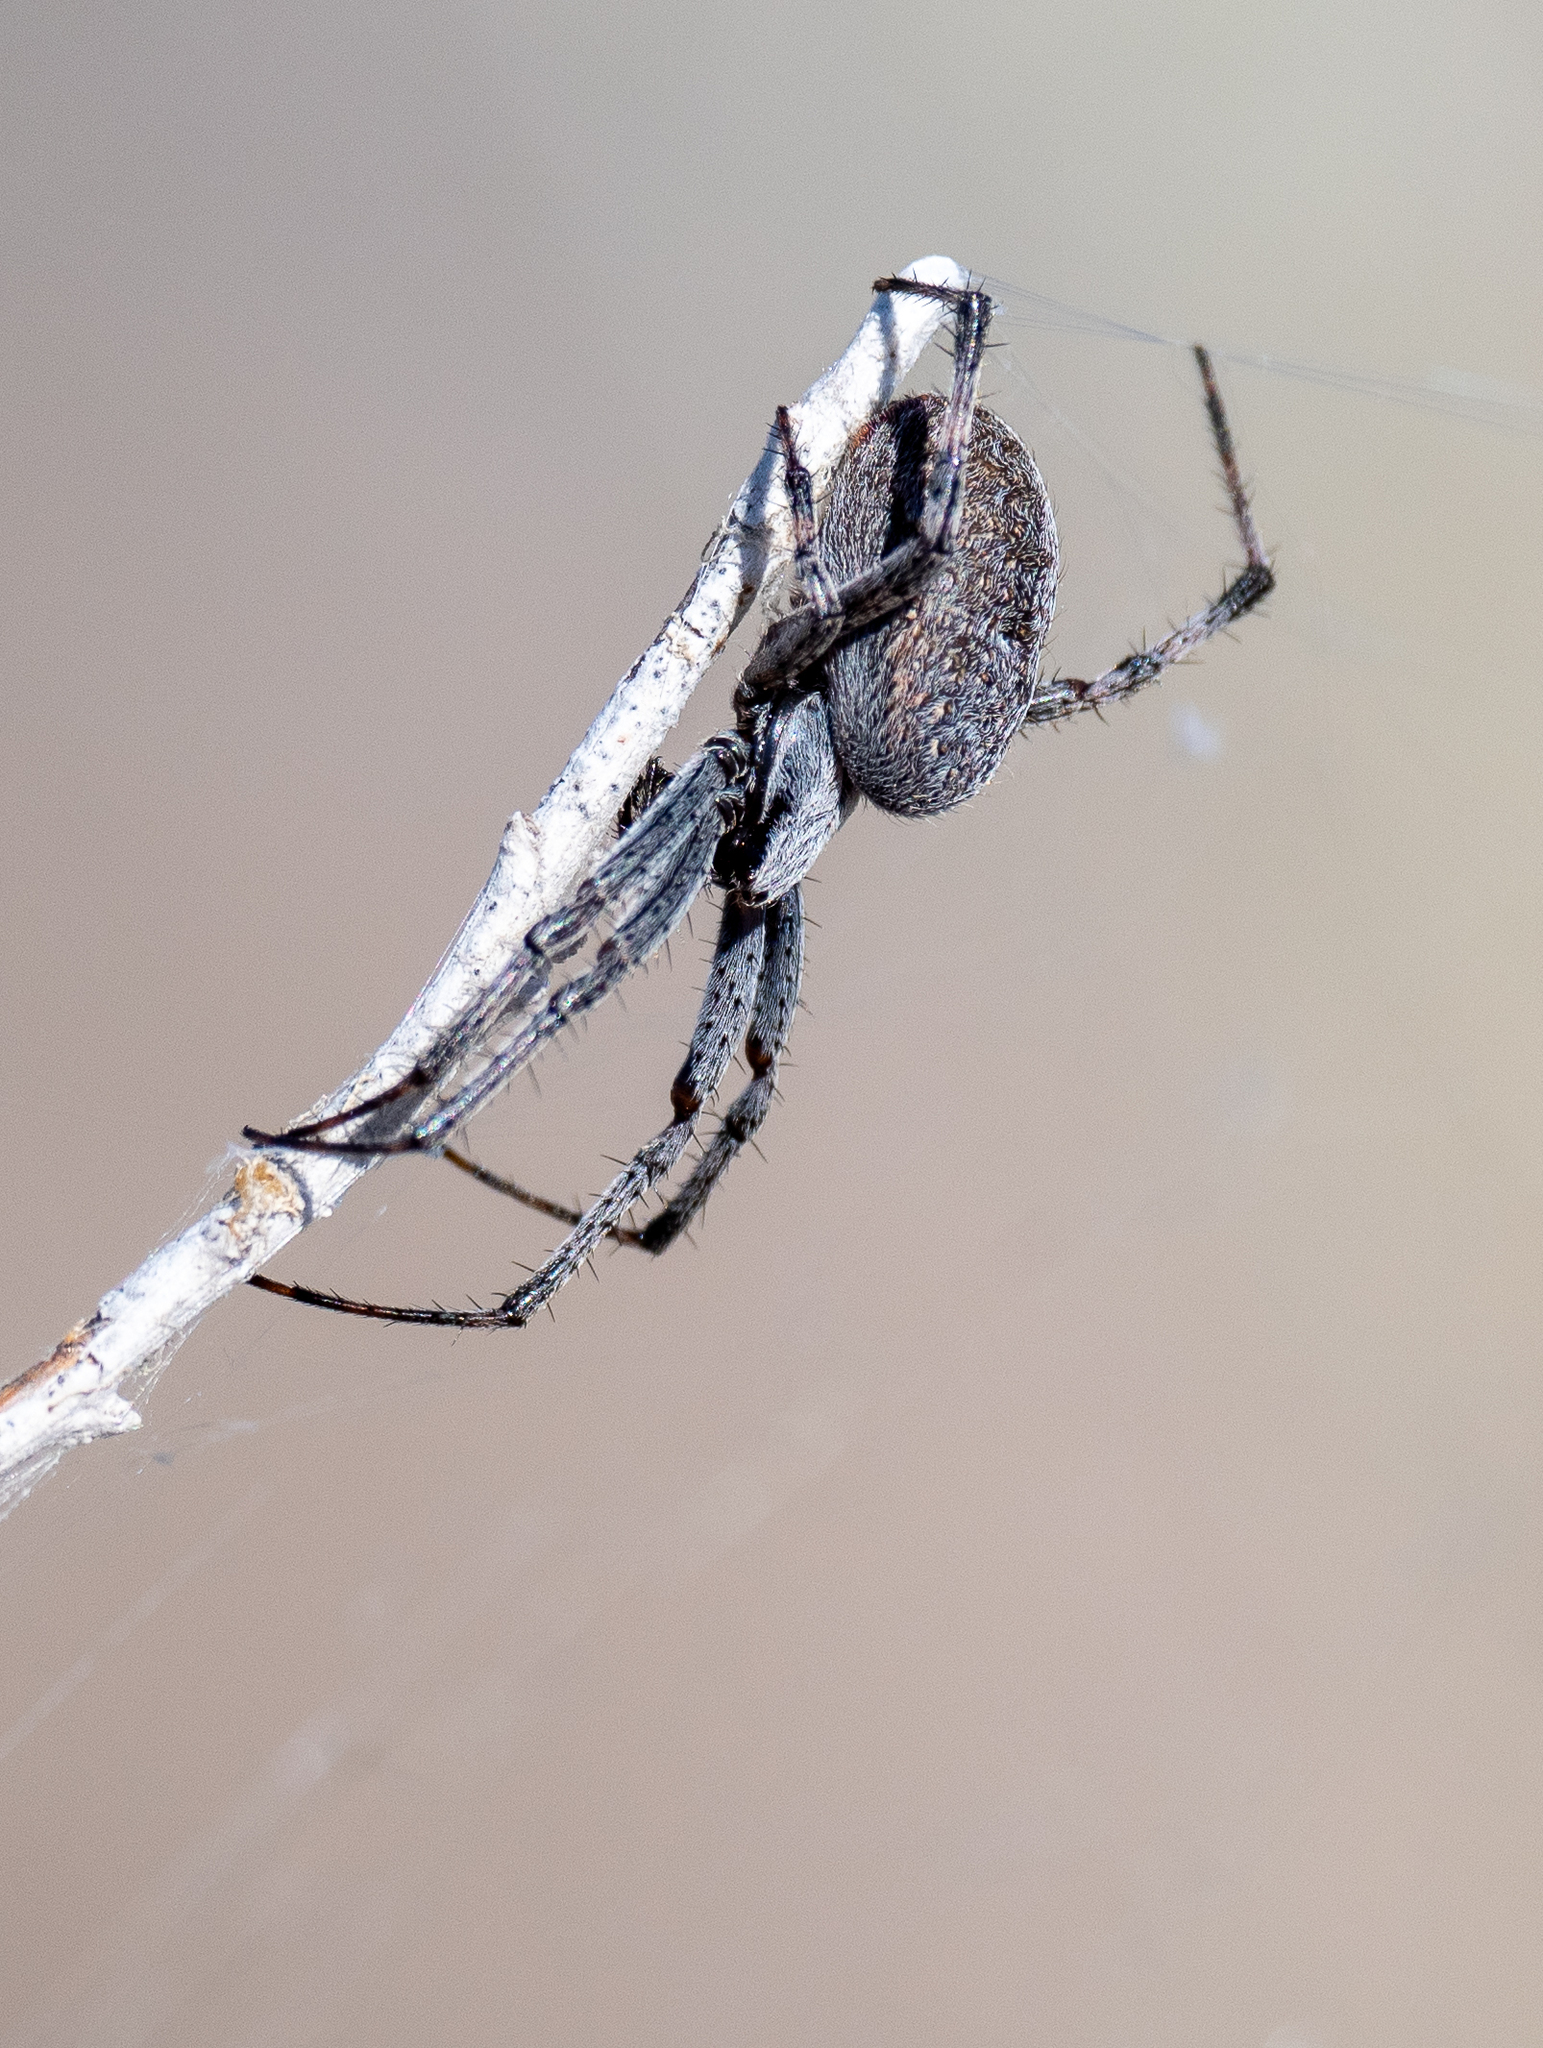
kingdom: Animalia
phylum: Arthropoda
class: Arachnida
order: Araneae
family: Araneidae
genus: Neoscona
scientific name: Neoscona oaxacensis
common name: Orb weavers
